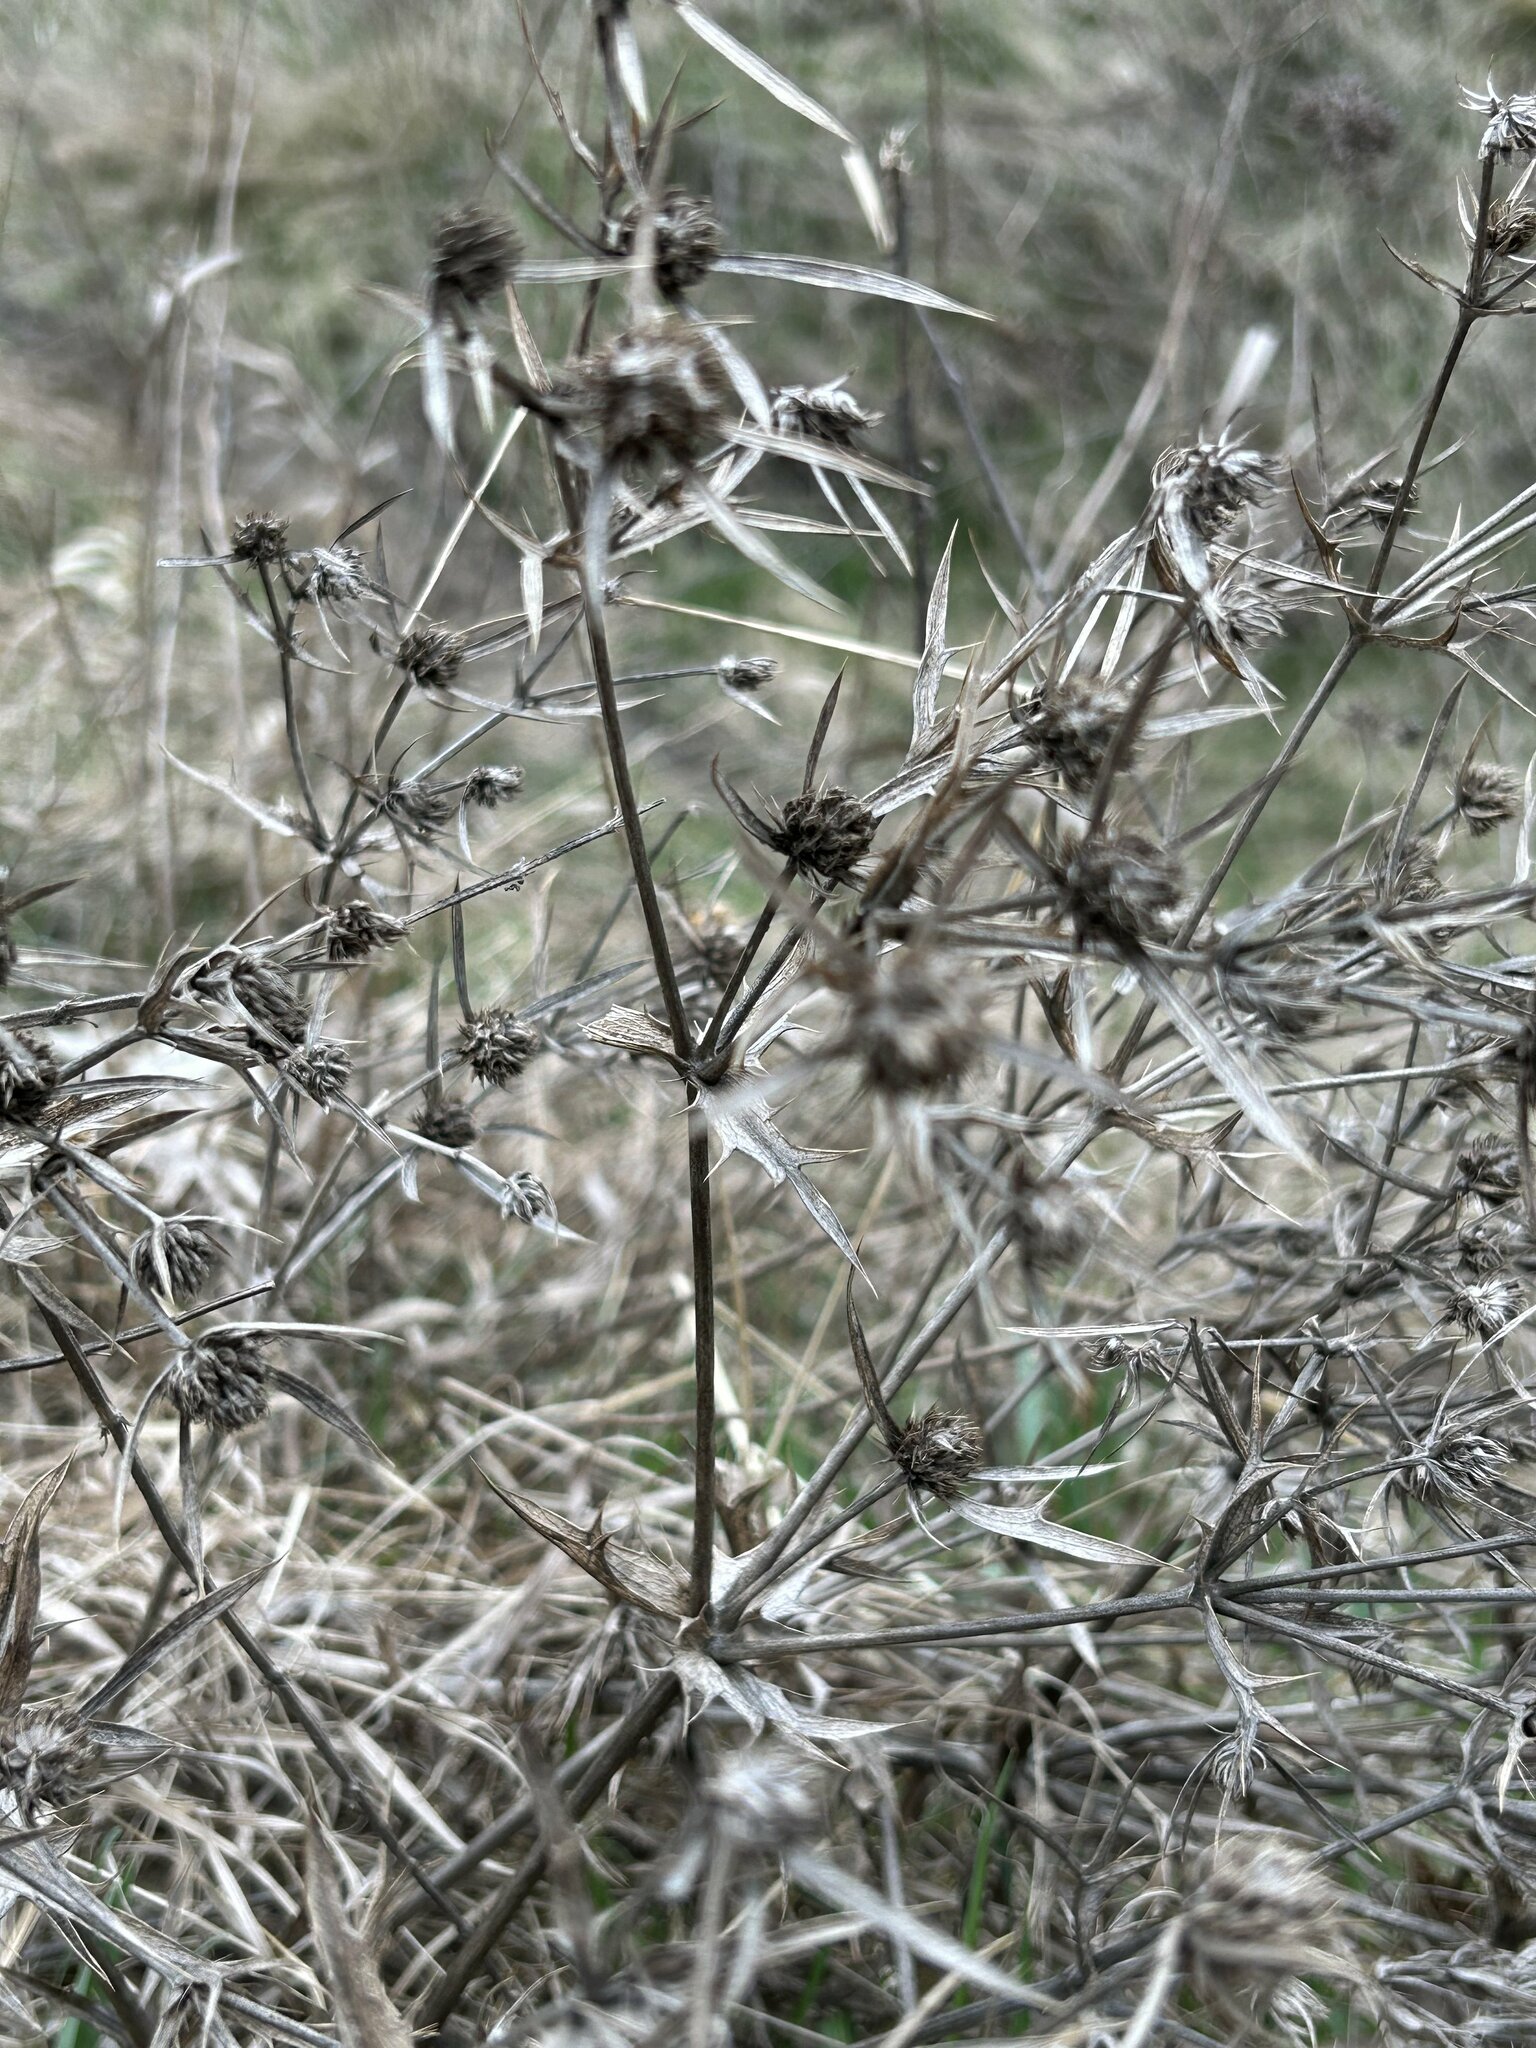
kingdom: Plantae
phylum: Tracheophyta
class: Magnoliopsida
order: Apiales
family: Apiaceae
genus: Eryngium
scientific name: Eryngium campestre
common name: Field eryngo
